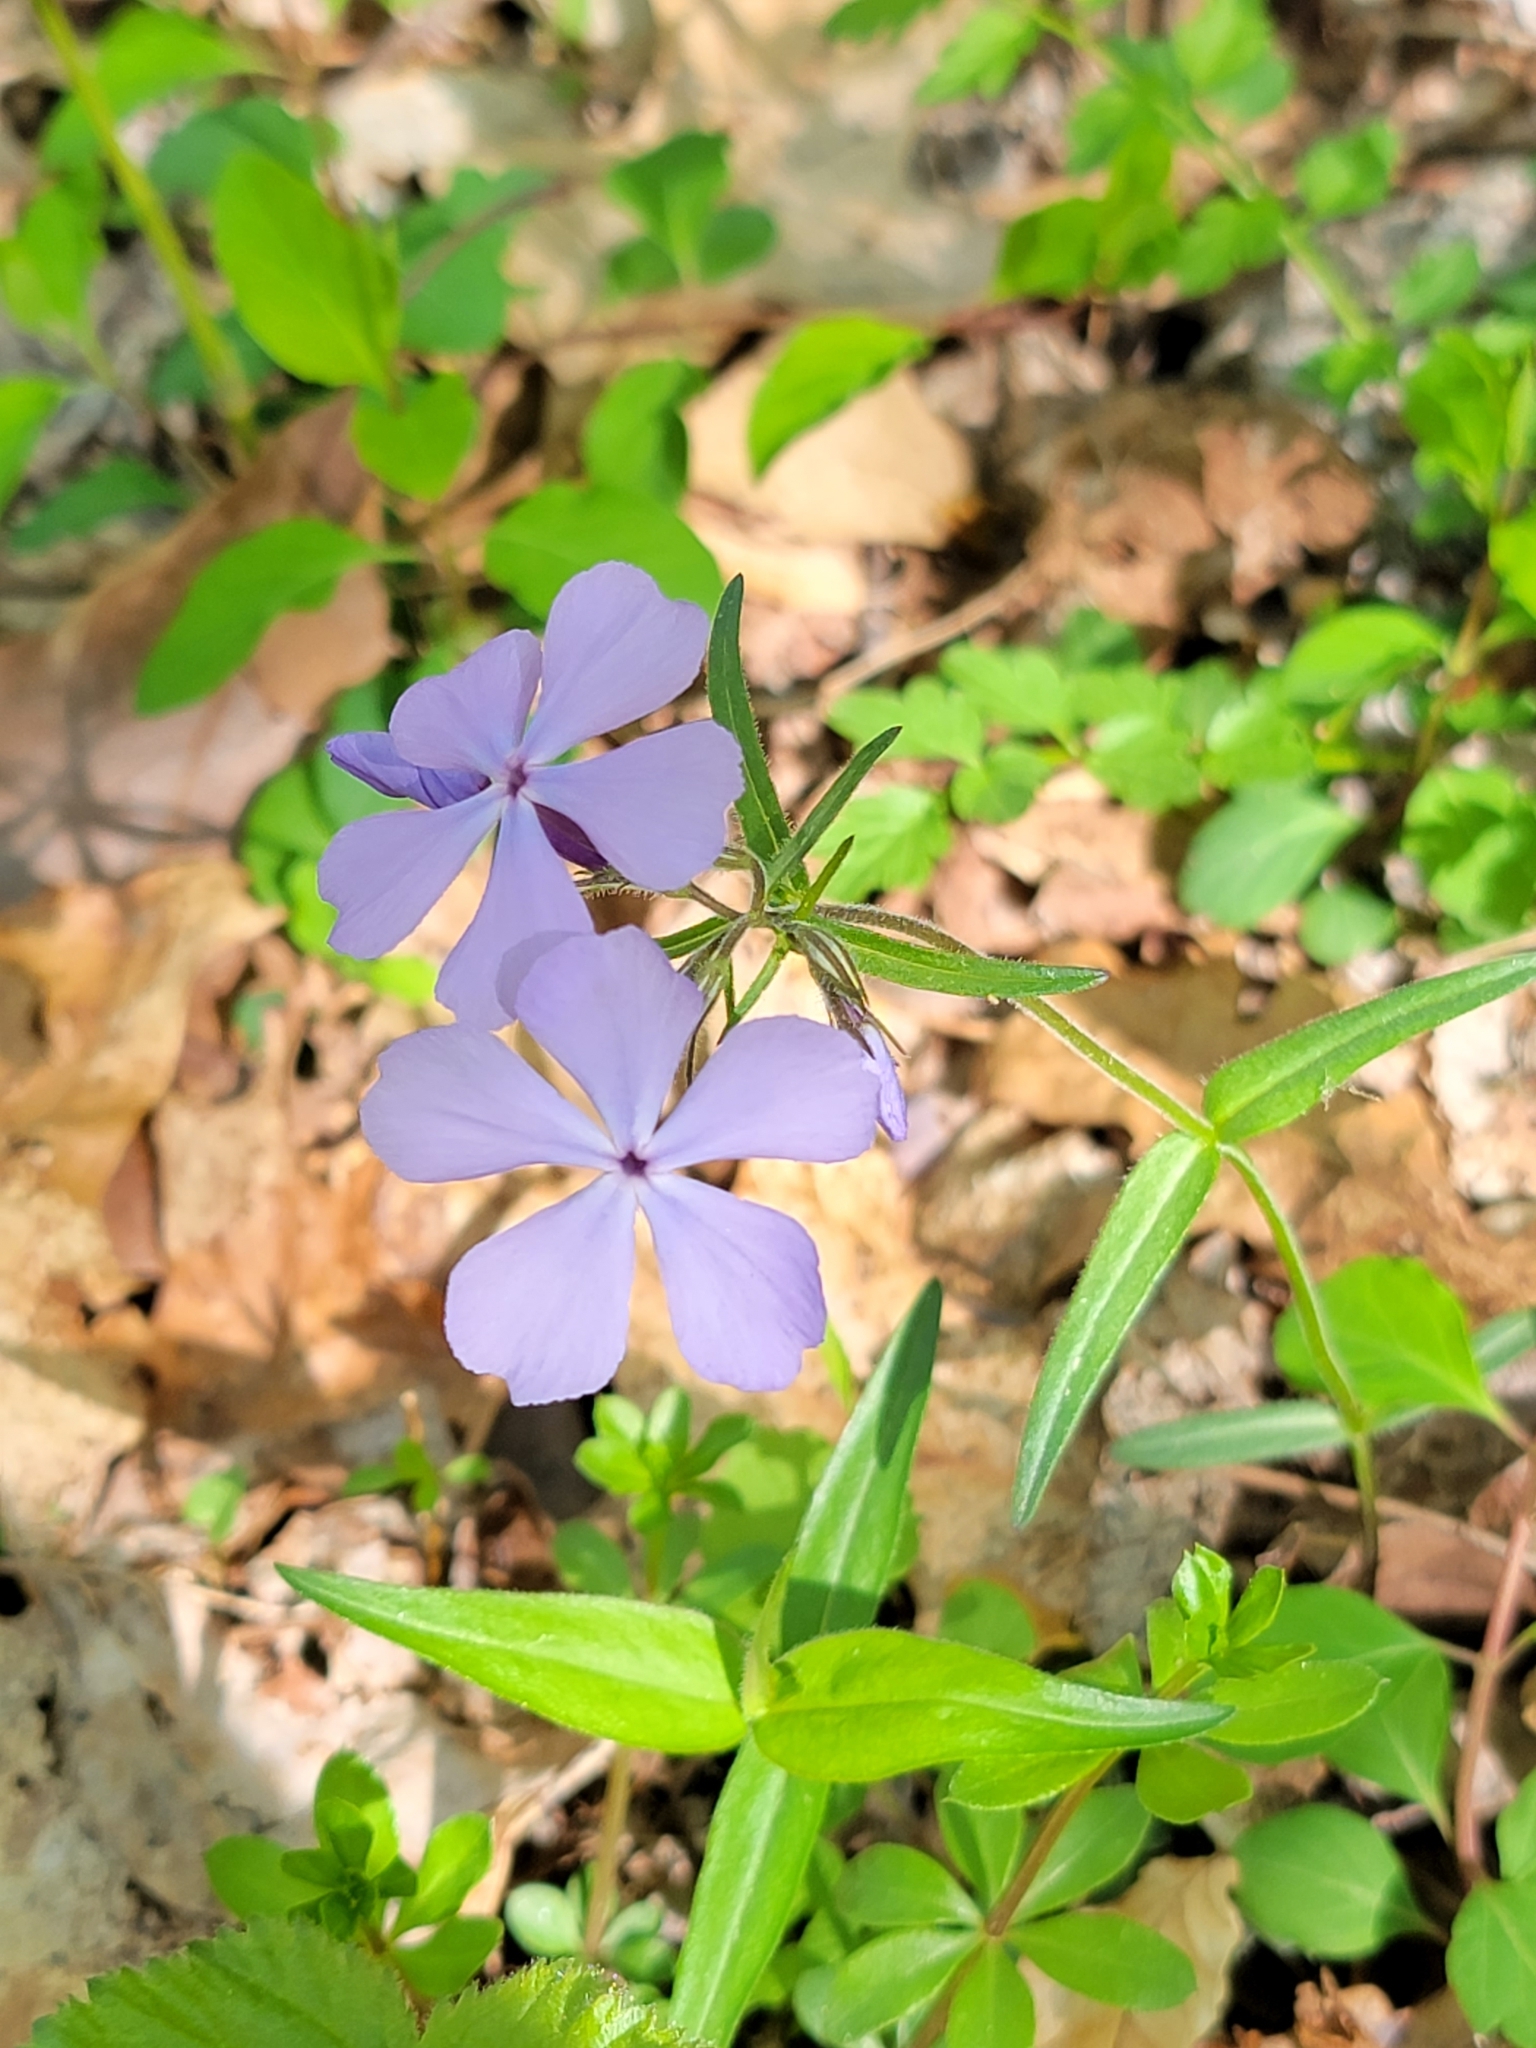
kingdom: Plantae
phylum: Tracheophyta
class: Magnoliopsida
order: Ericales
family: Polemoniaceae
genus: Phlox
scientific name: Phlox divaricata
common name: Blue phlox
